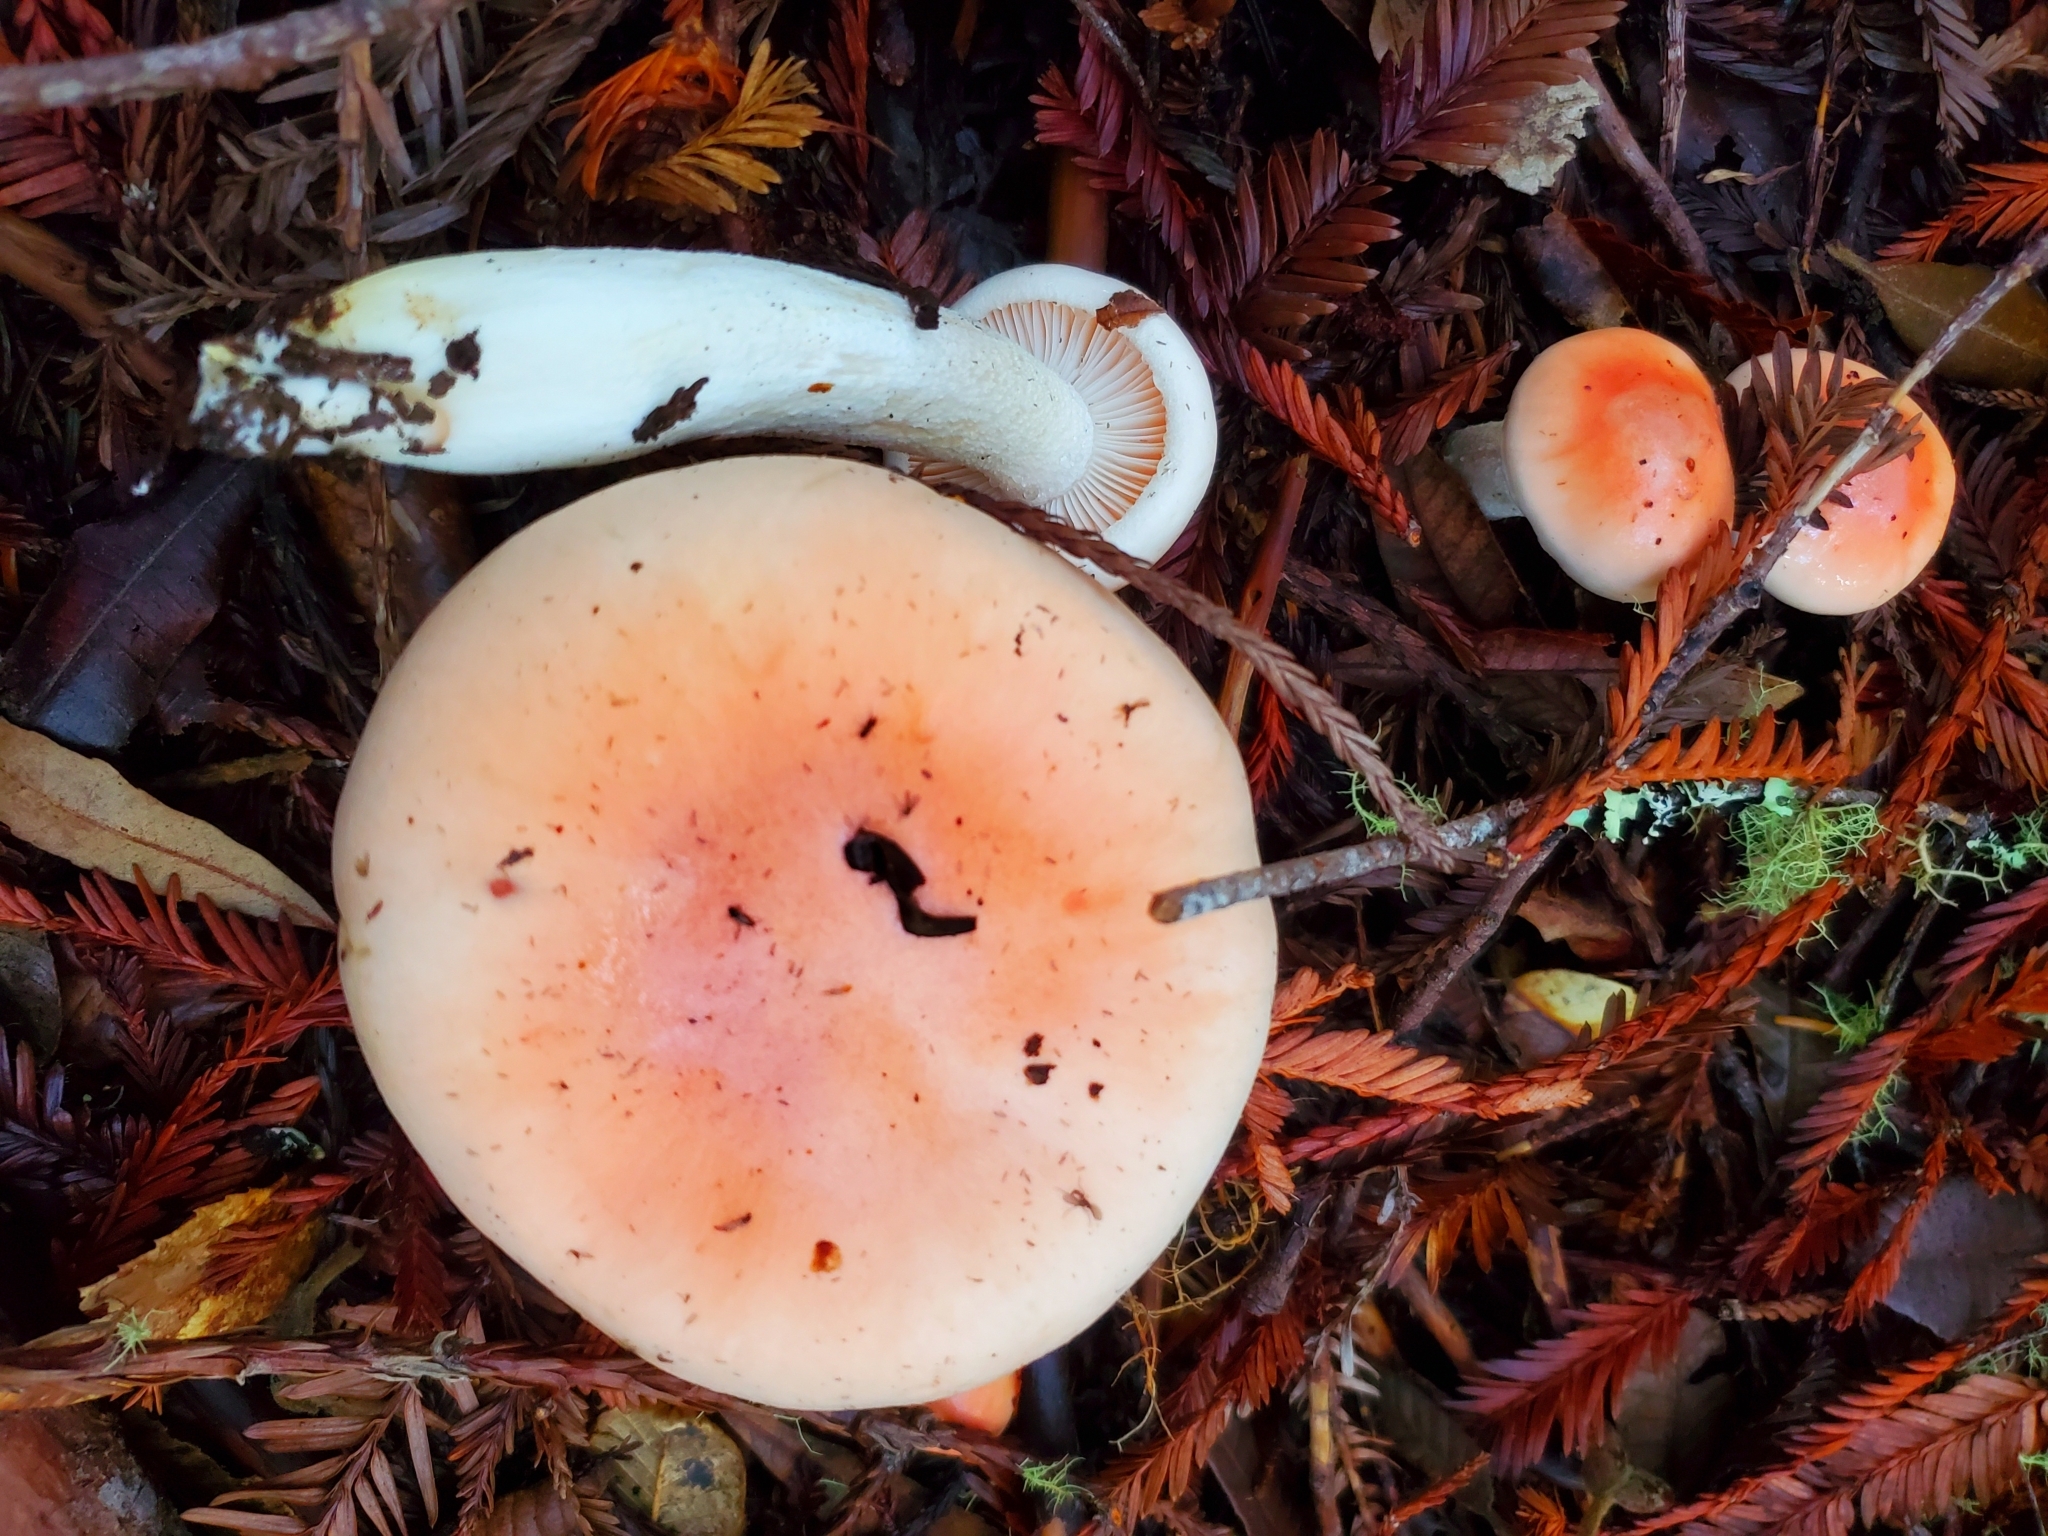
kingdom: Fungi
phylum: Basidiomycota
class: Agaricomycetes
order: Agaricales
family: Hygrophoraceae
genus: Hygrophorus
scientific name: Hygrophorus roseobrunneus
